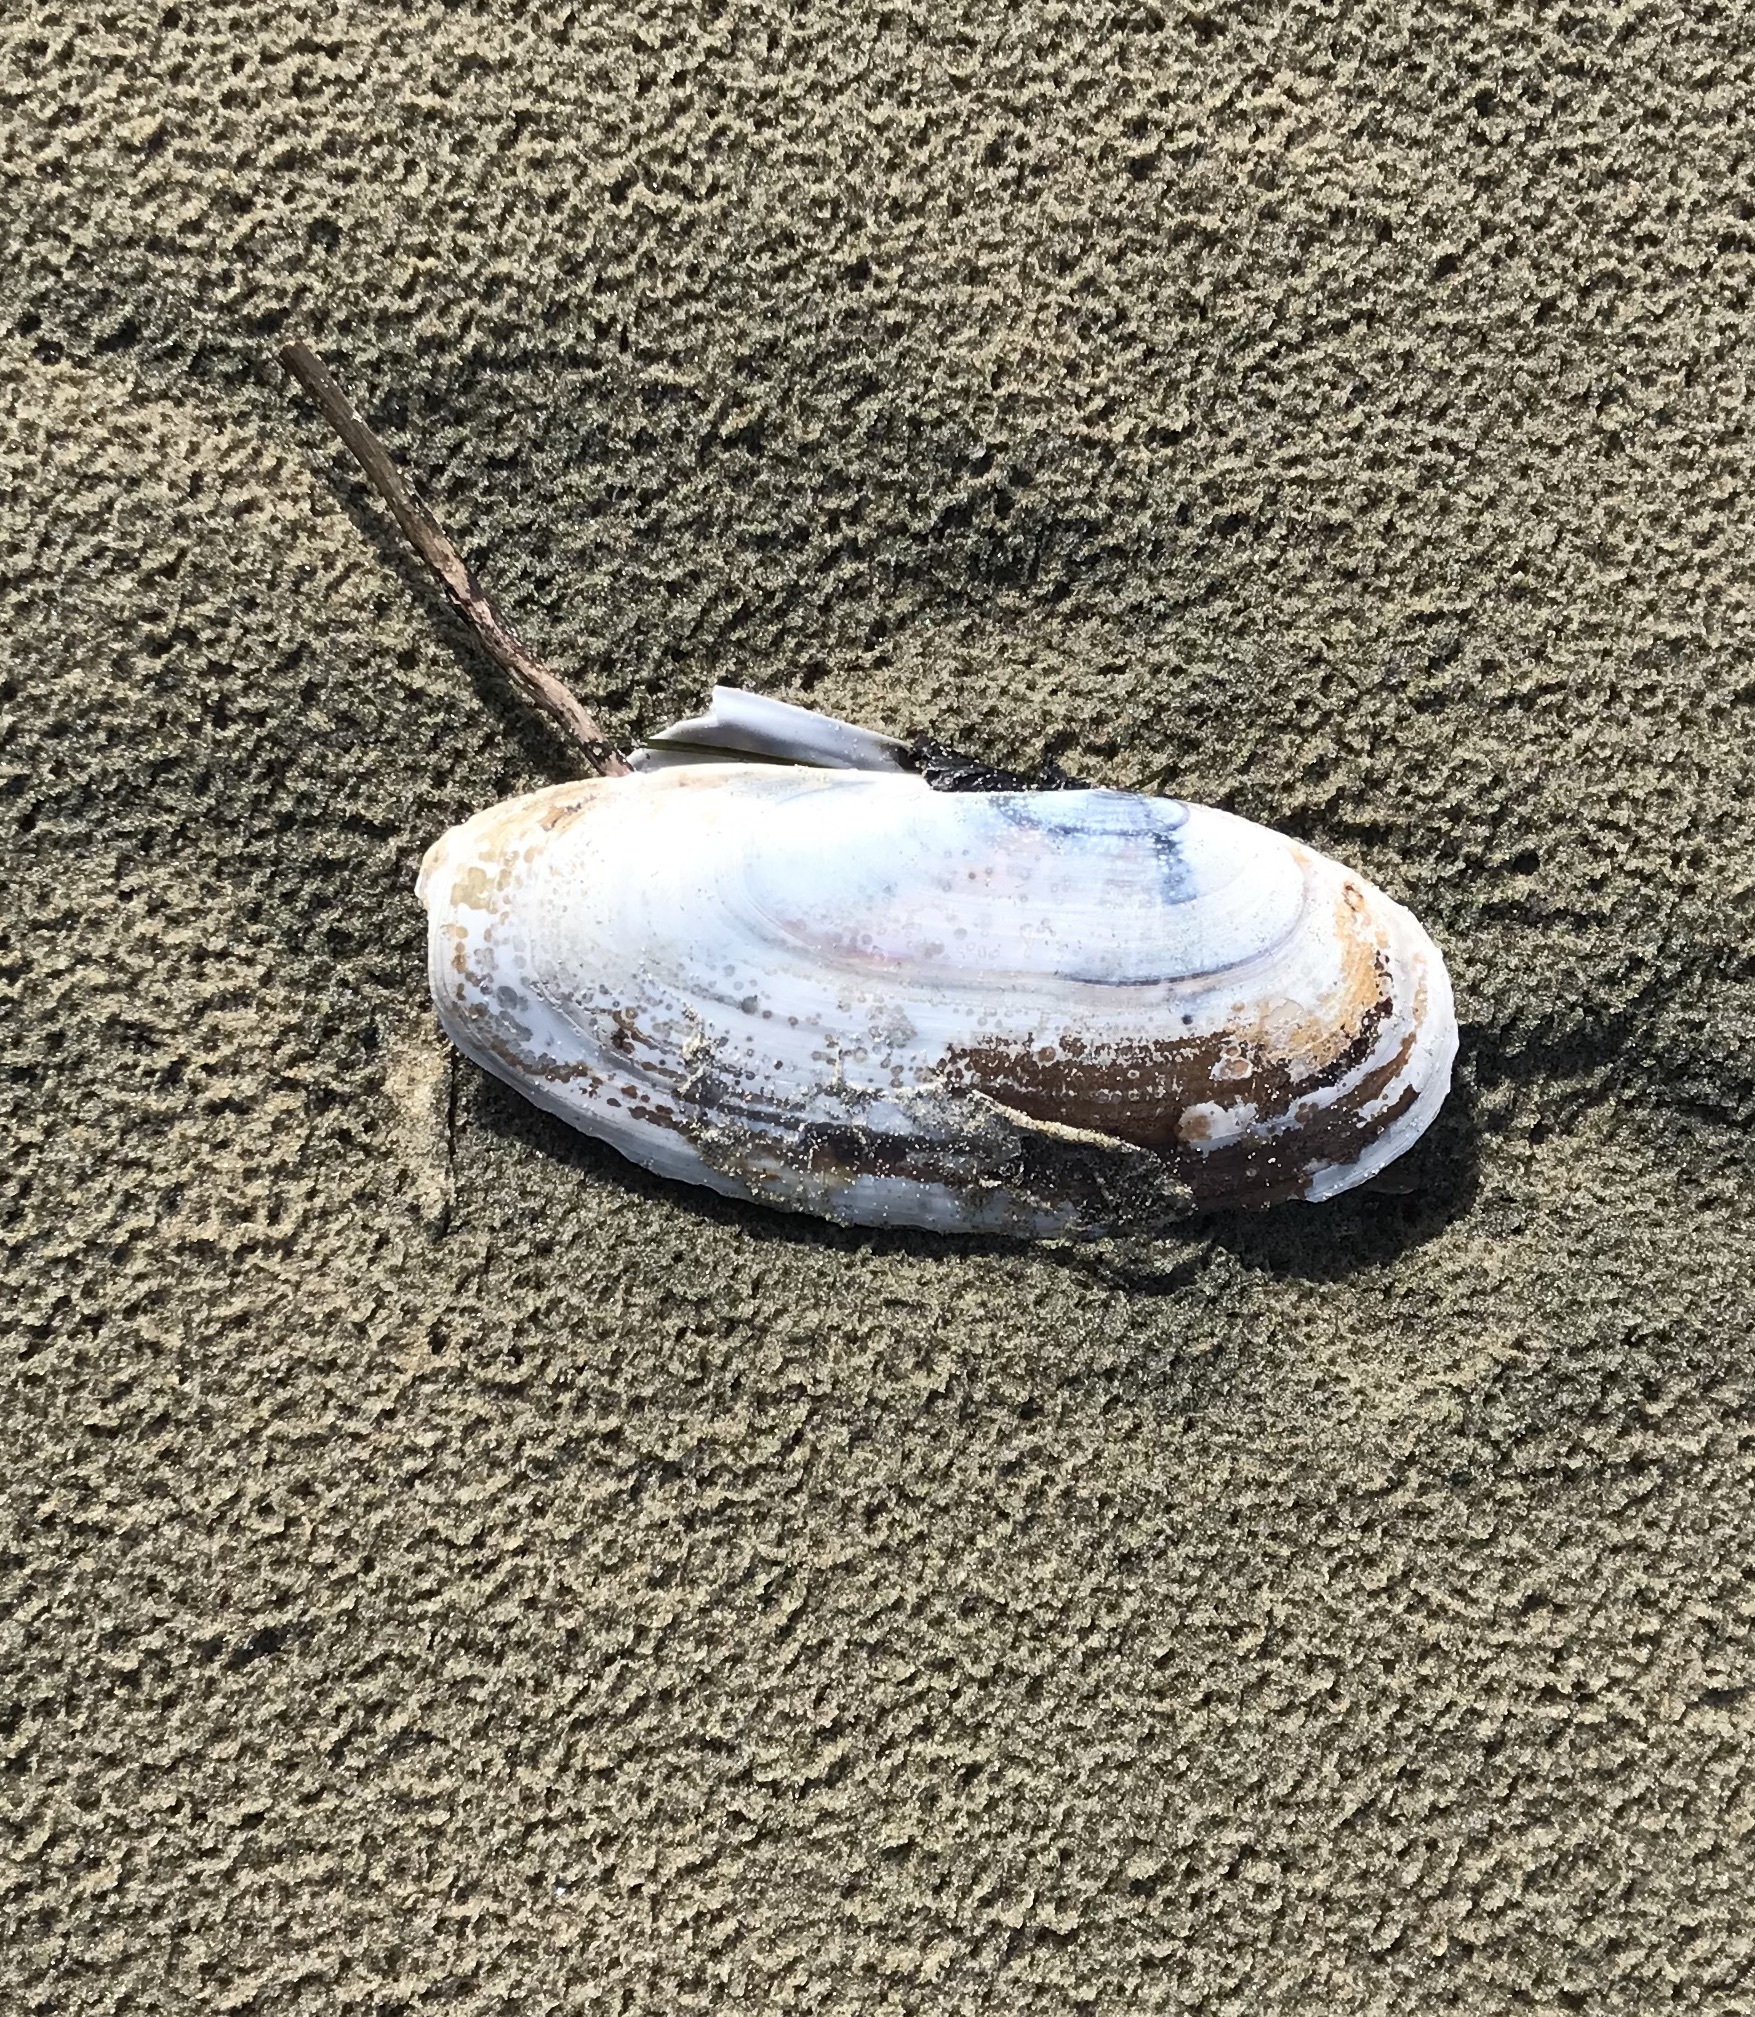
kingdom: Animalia
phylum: Mollusca
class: Bivalvia
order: Adapedonta
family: Pharidae
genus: Siliqua
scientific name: Siliqua patula
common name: Pacific razor clam
